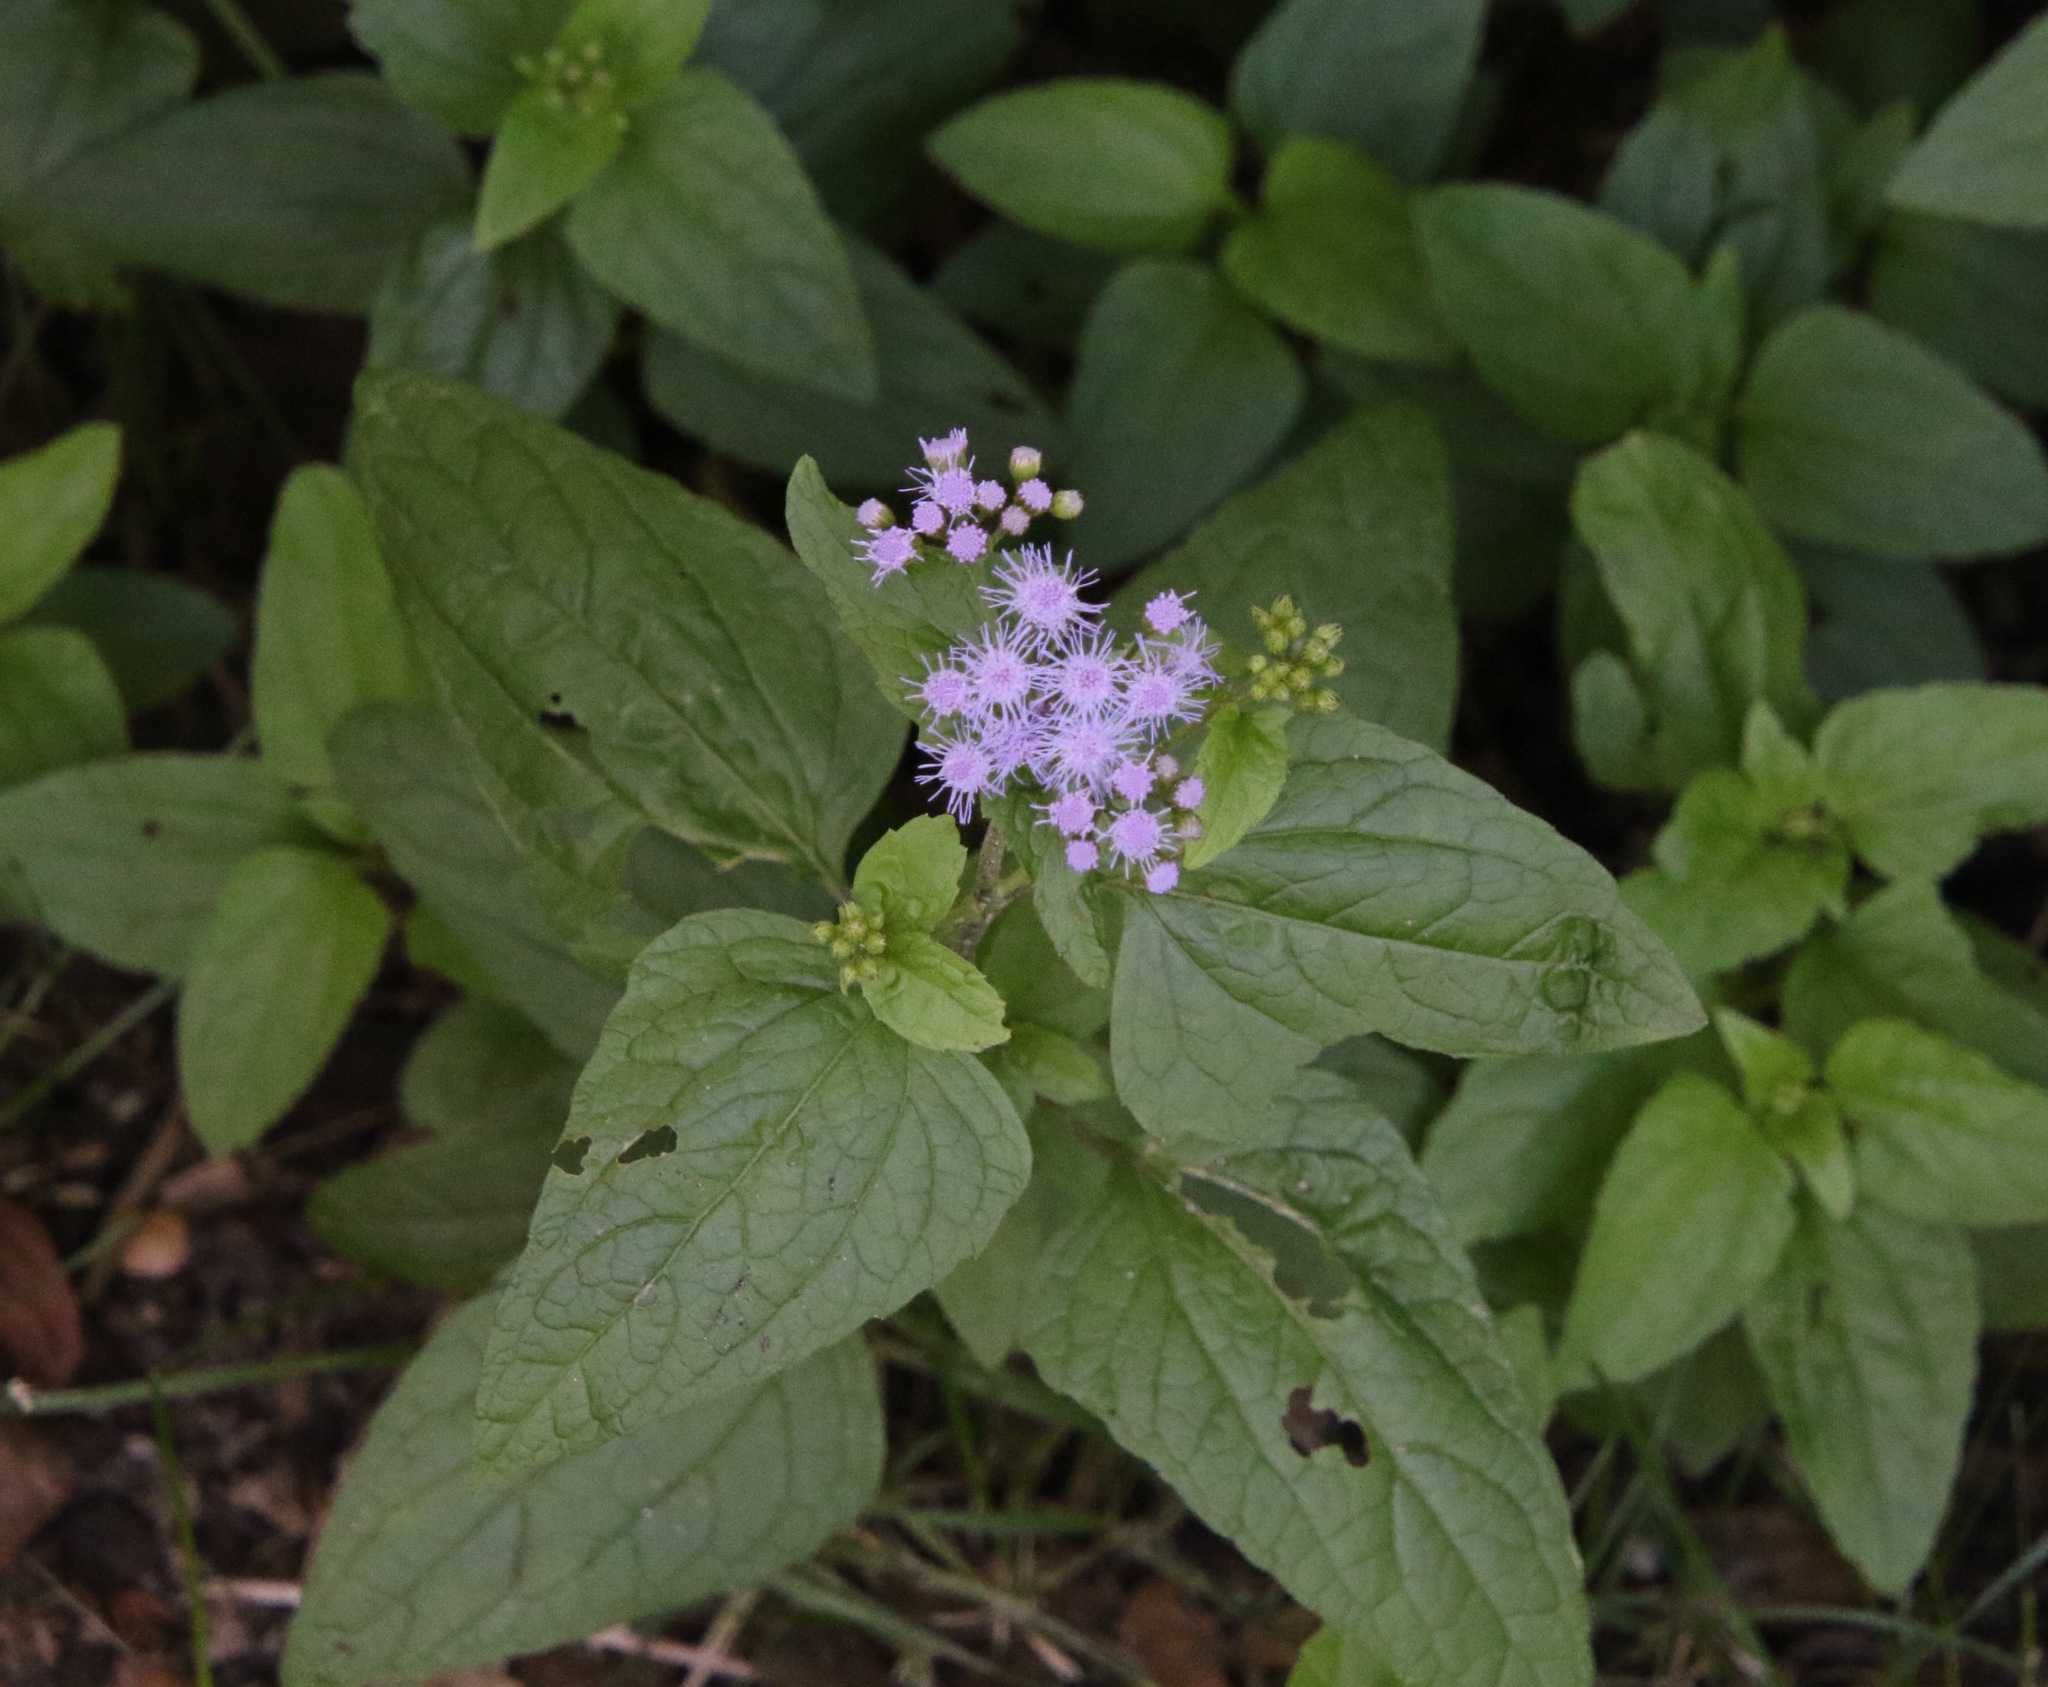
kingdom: Plantae
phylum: Tracheophyta
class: Magnoliopsida
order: Asterales
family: Asteraceae
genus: Conoclinium
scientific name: Conoclinium coelestinum
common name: Blue mistflower
